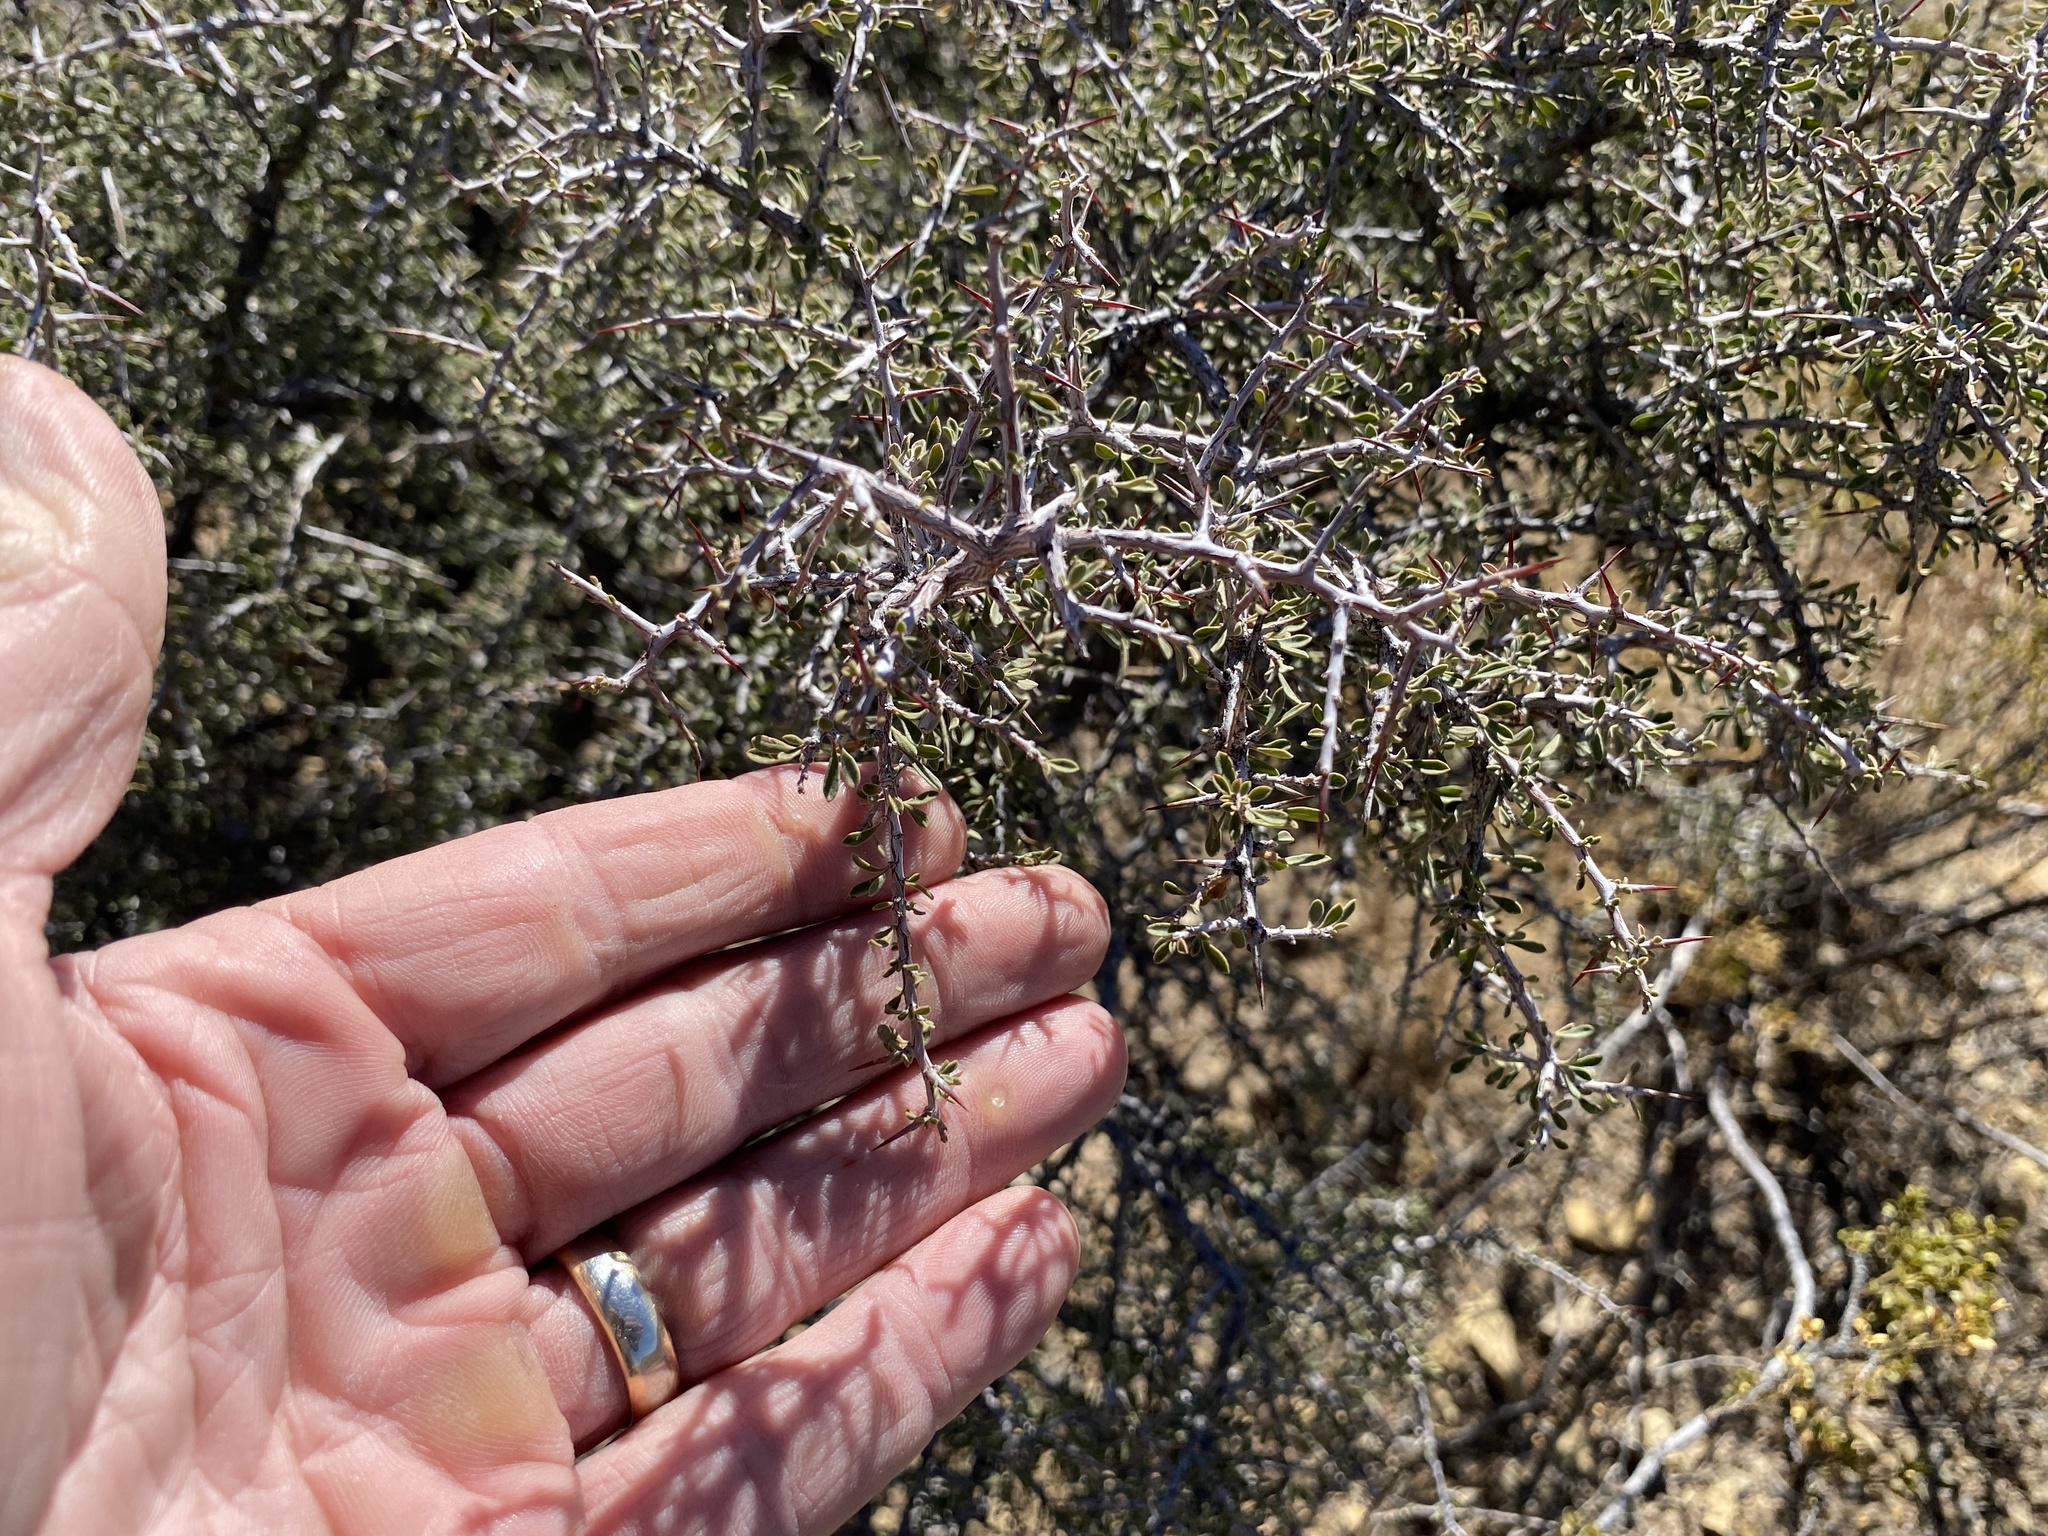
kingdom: Plantae
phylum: Tracheophyta
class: Magnoliopsida
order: Rosales
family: Rhamnaceae
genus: Condalia
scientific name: Condalia warnockii
